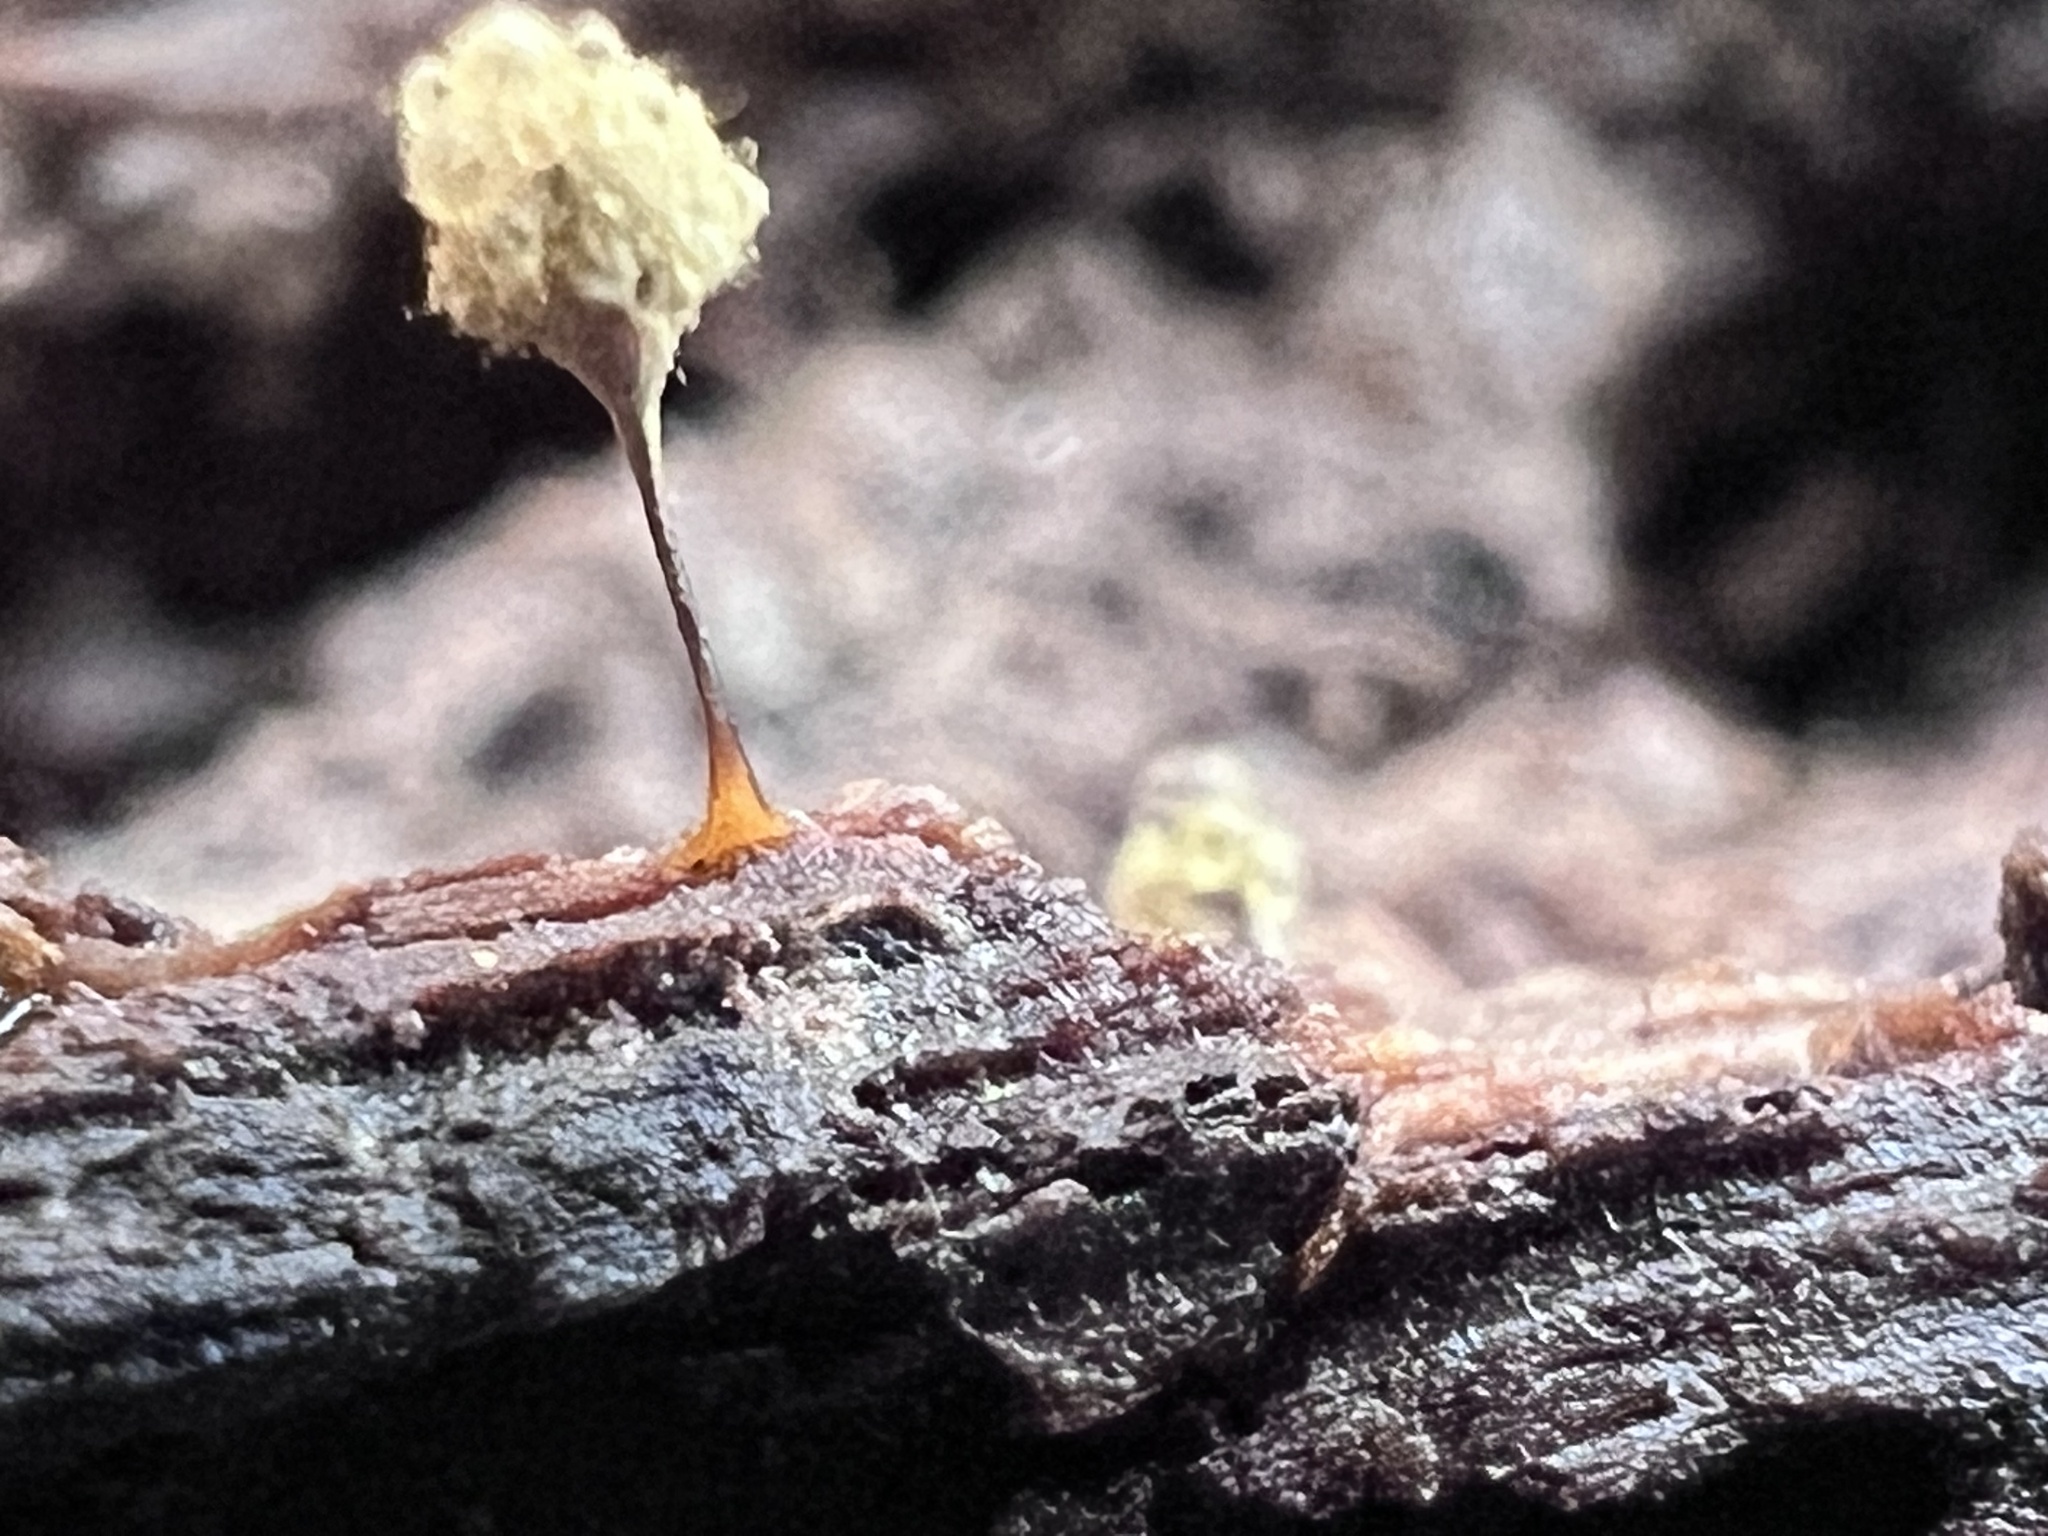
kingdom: Protozoa
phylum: Mycetozoa
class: Myxomycetes
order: Trichiales
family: Arcyriaceae
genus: Hemitrichia
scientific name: Hemitrichia calyculata
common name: Push pin slime mold
